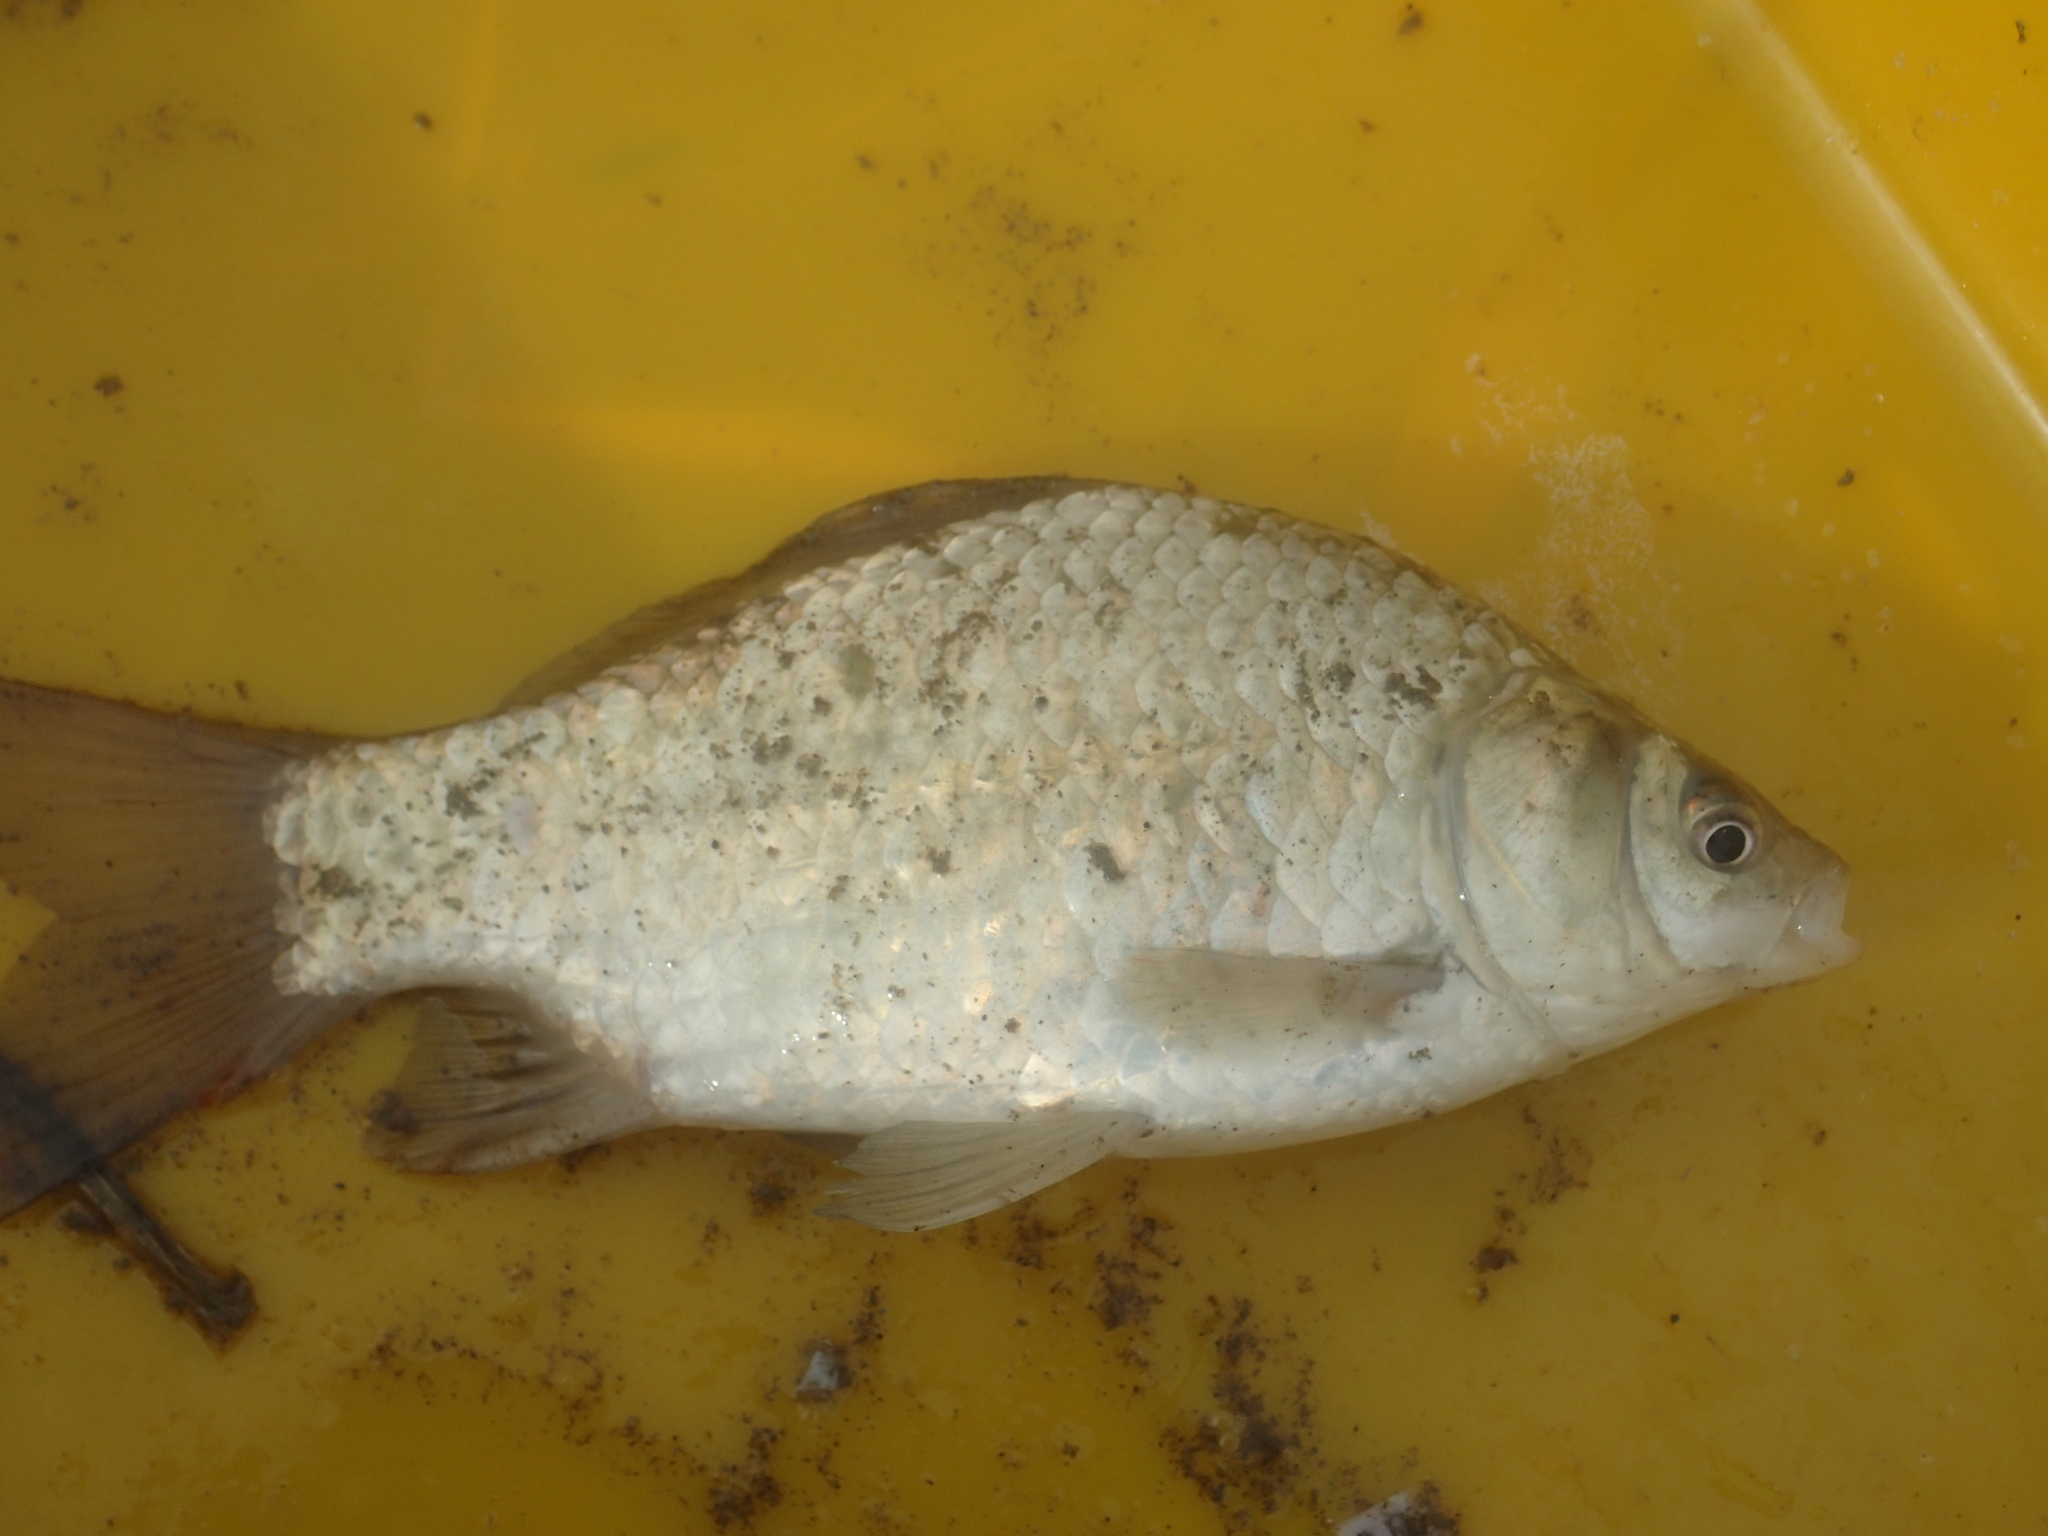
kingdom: Animalia
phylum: Chordata
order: Cypriniformes
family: Cyprinidae
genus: Carassius
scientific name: Carassius cuvieri
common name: Japanese white crucian carp
